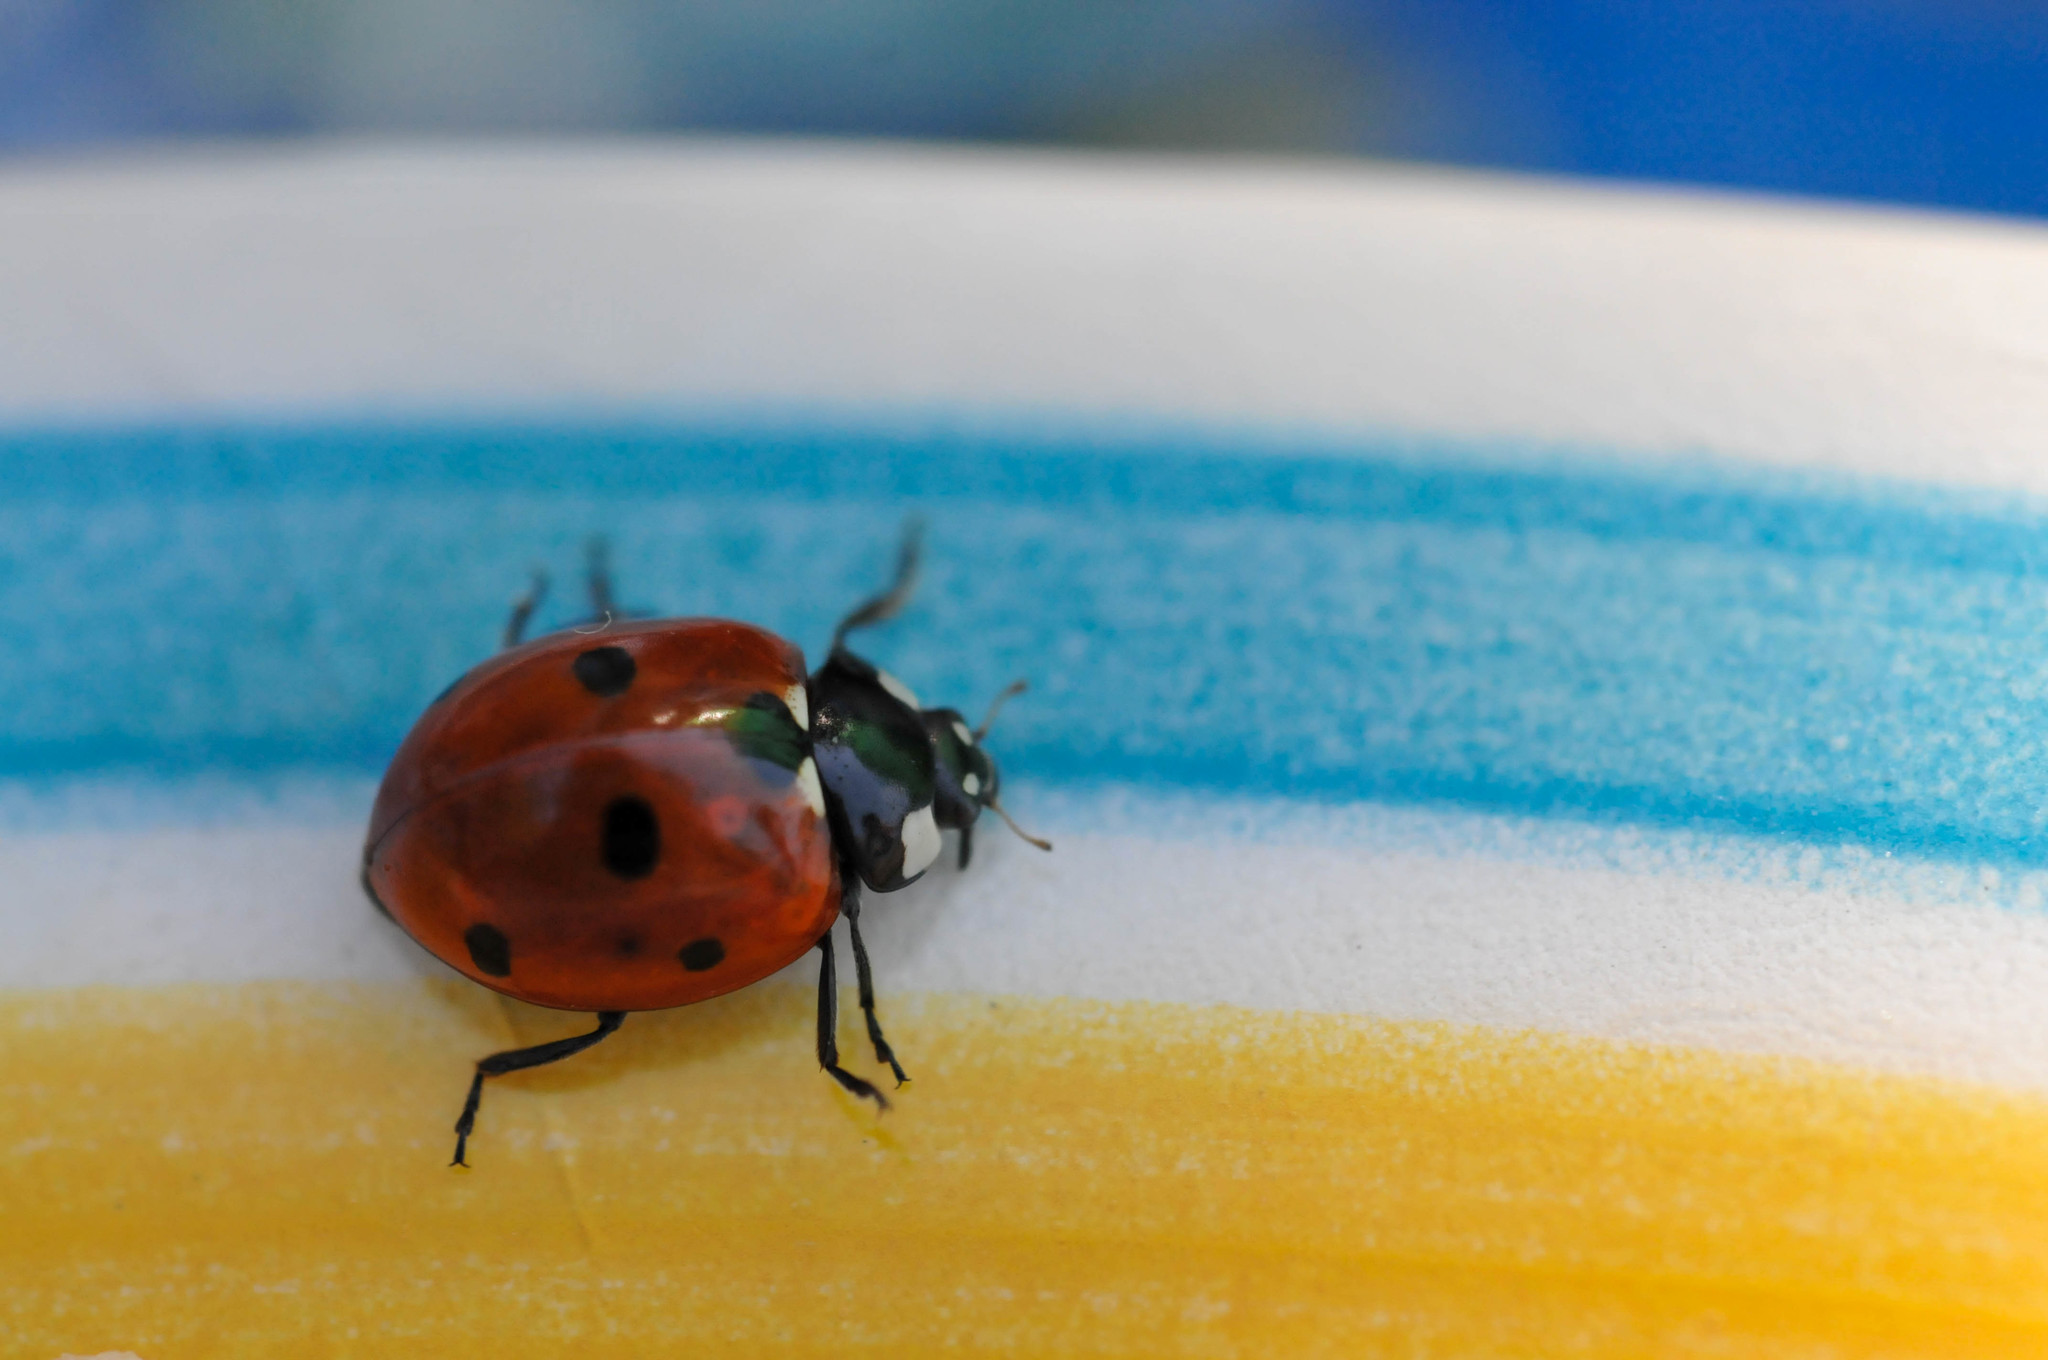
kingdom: Animalia
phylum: Arthropoda
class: Insecta
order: Coleoptera
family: Coccinellidae
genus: Coccinella
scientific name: Coccinella septempunctata
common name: Sevenspotted lady beetle
